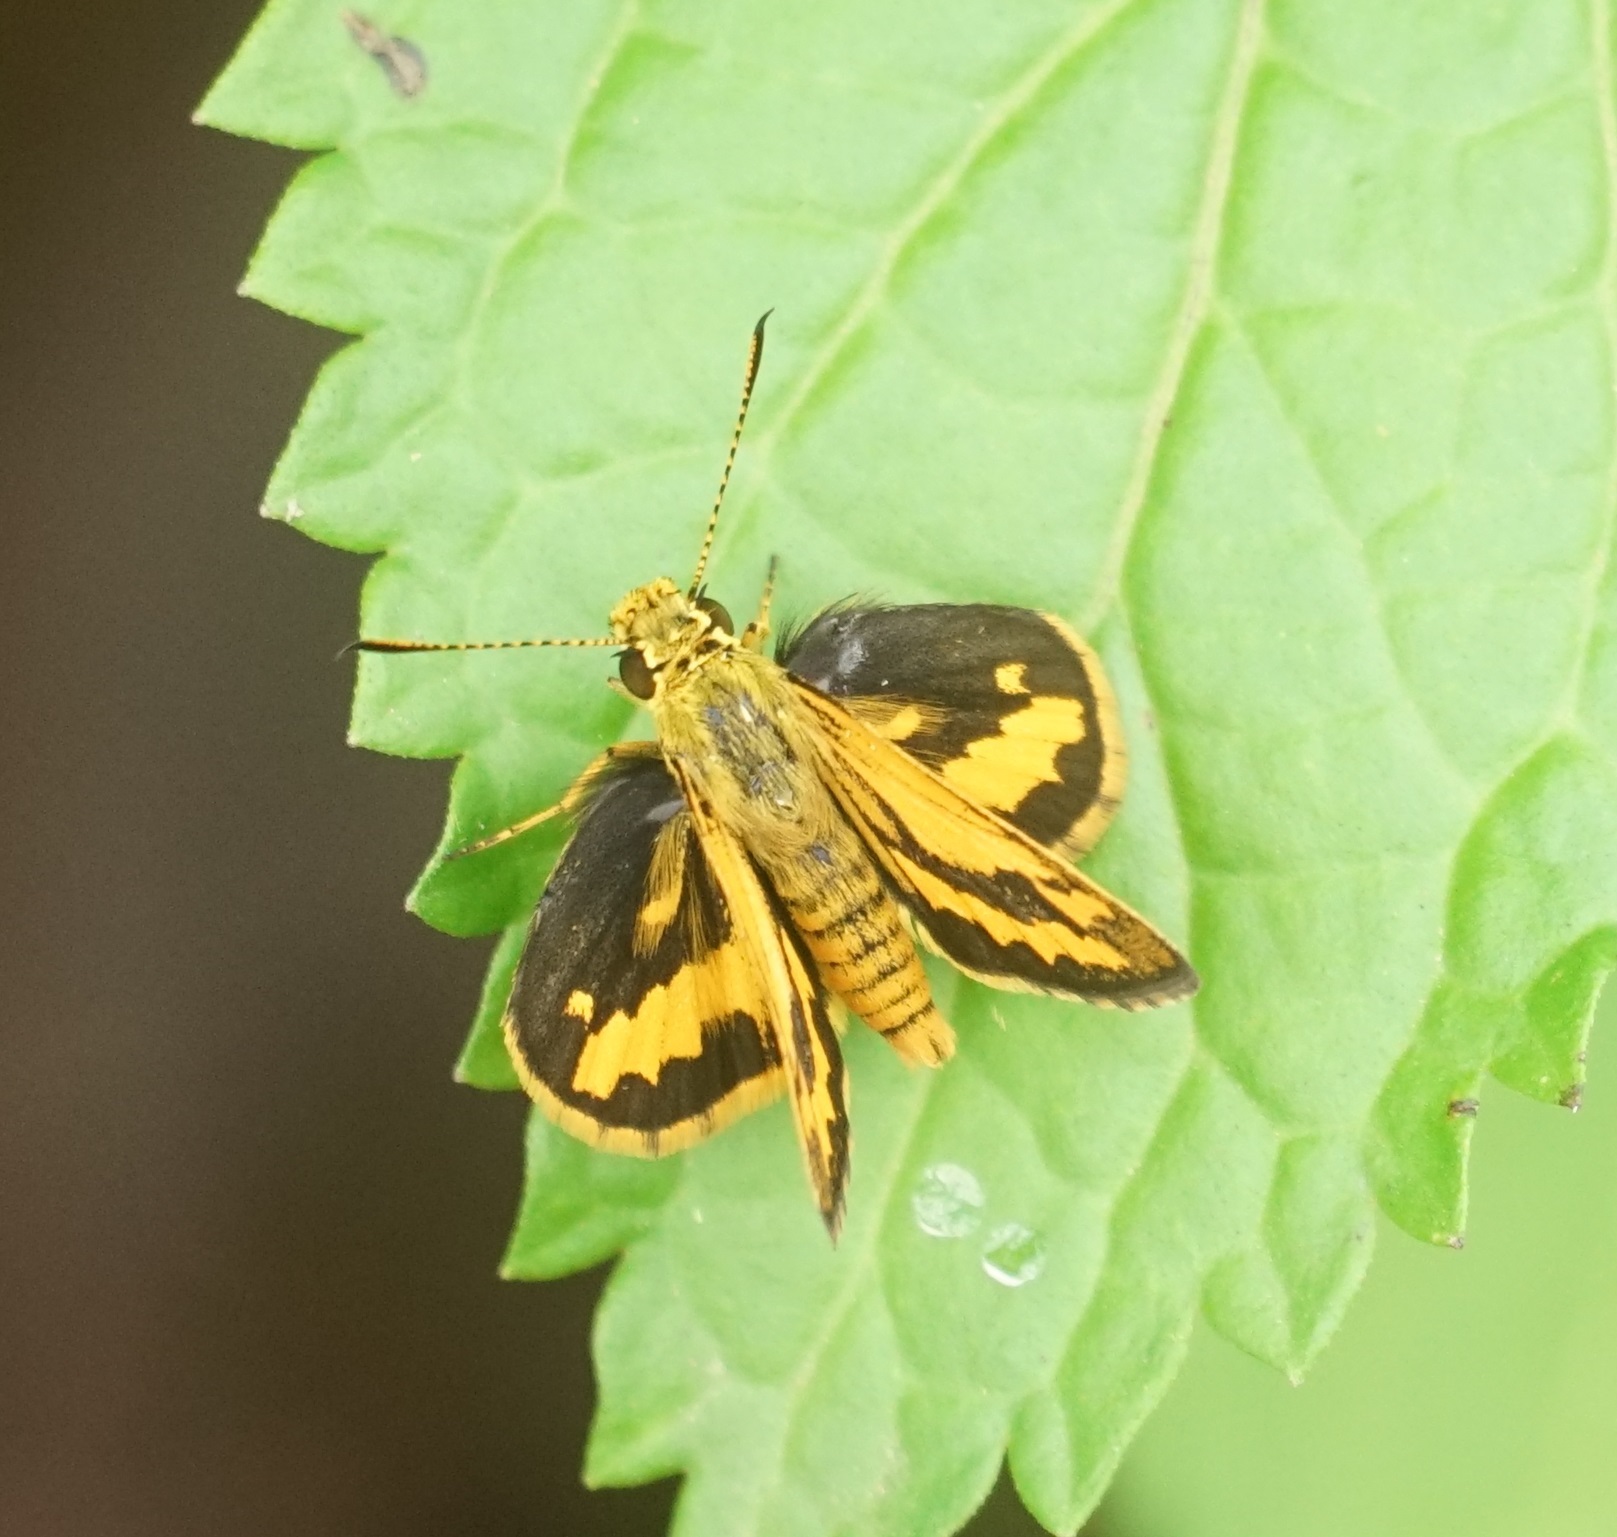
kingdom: Animalia
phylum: Arthropoda
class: Insecta
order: Lepidoptera
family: Hesperiidae
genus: Suniana
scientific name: Suniana sunias
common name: Wide-brand grass-dart
